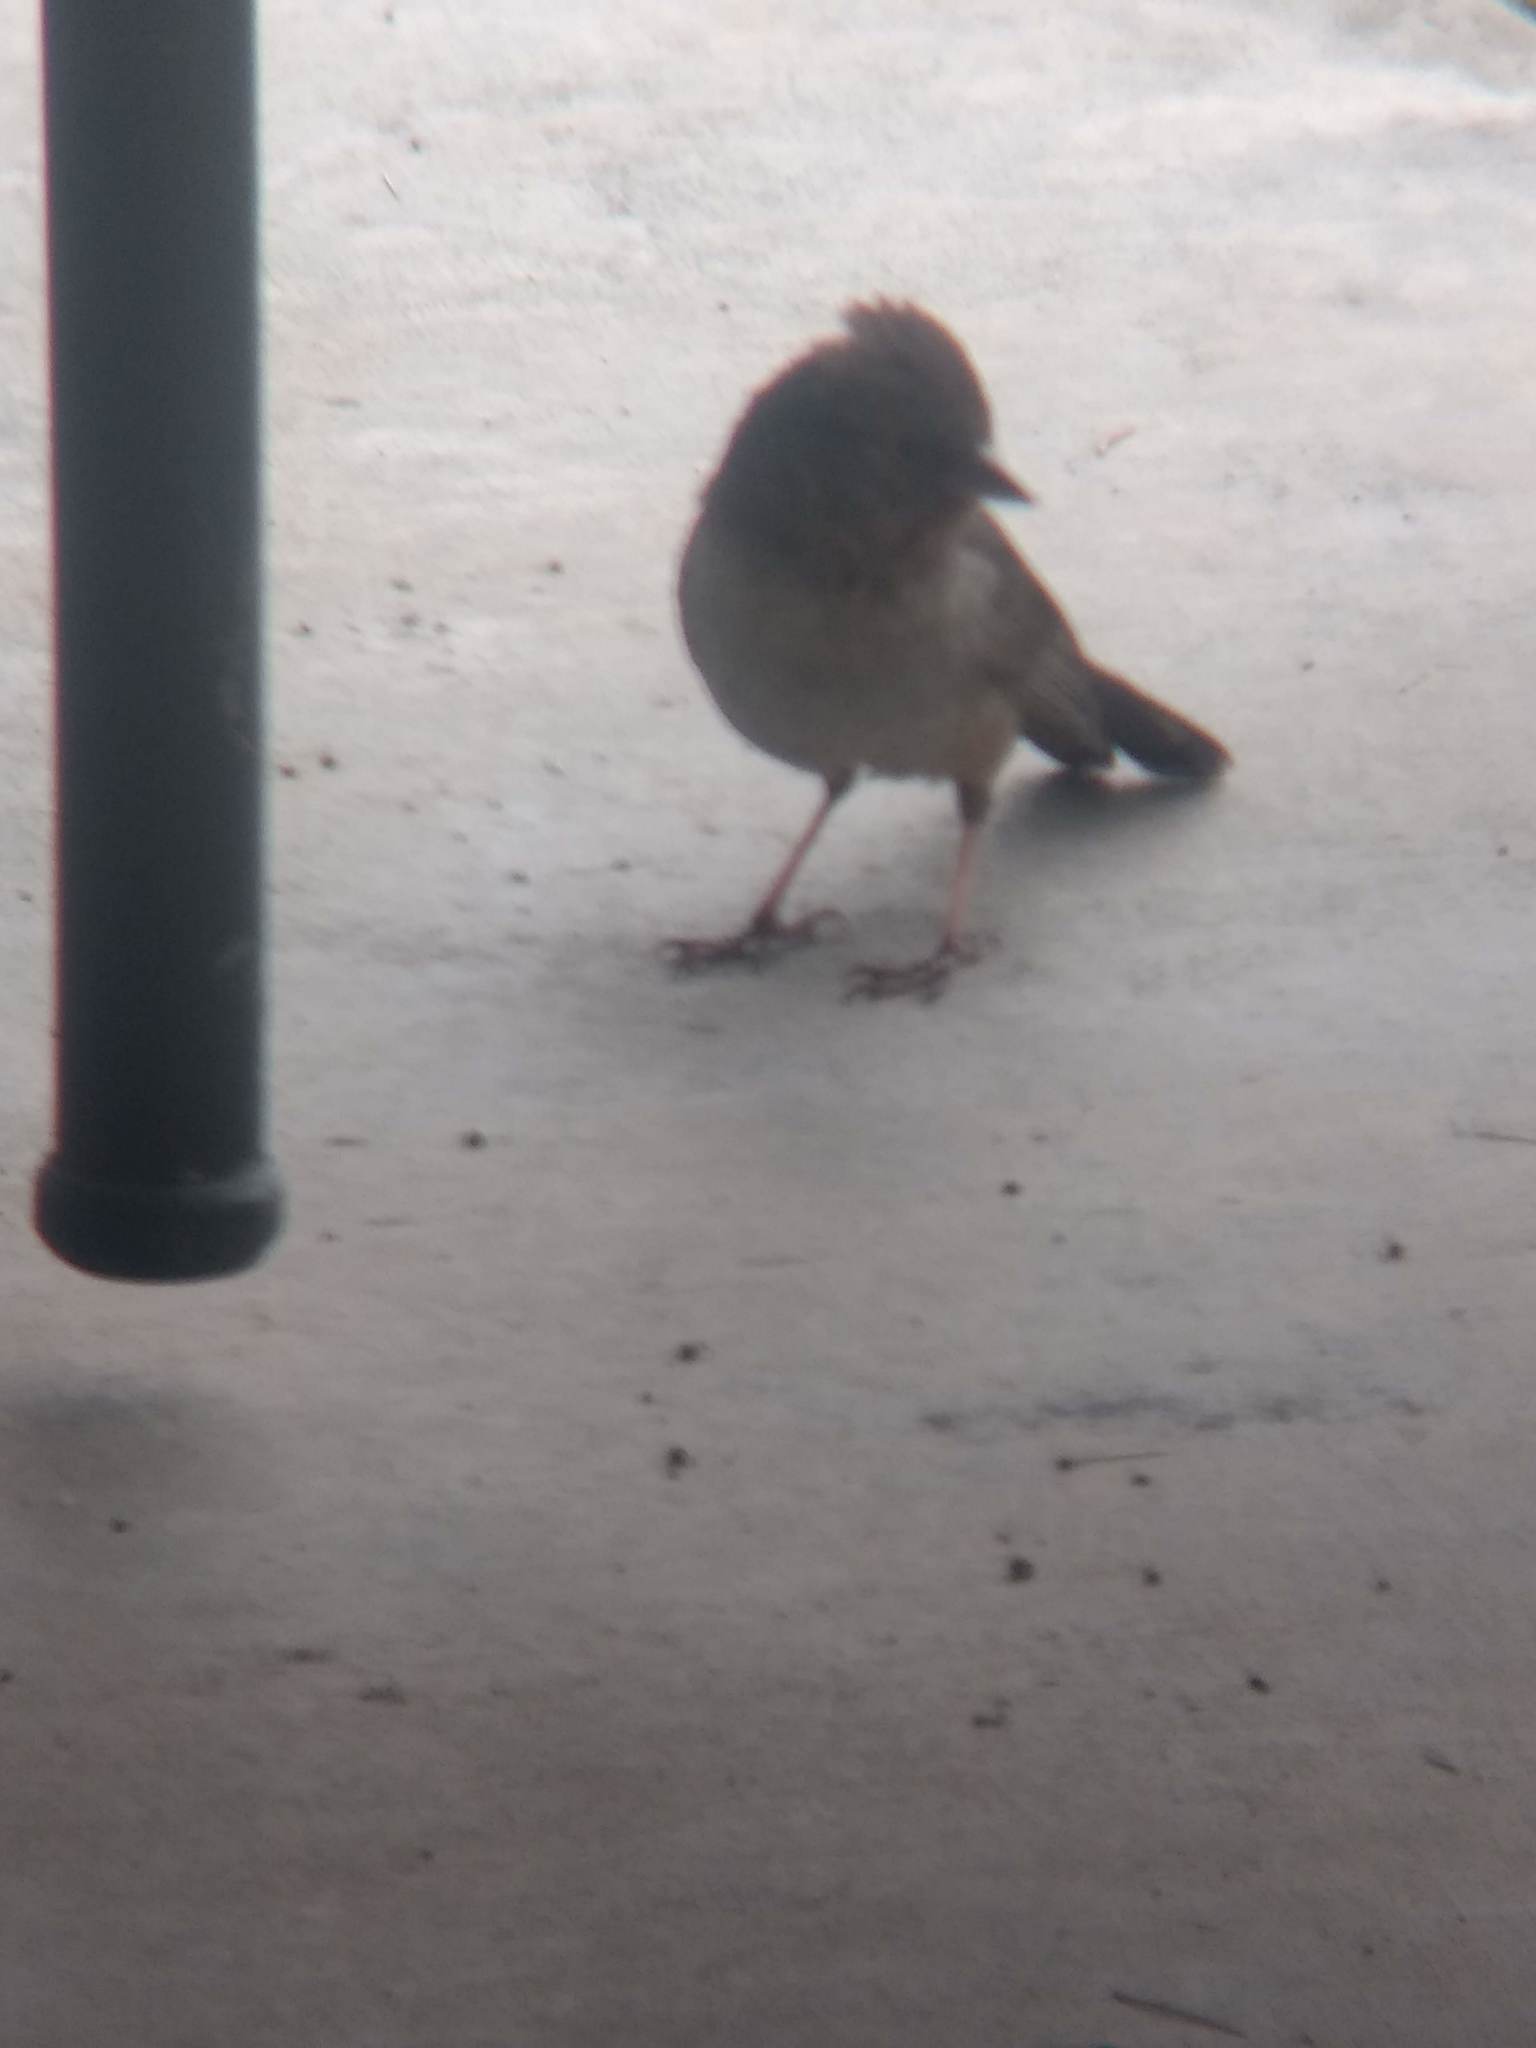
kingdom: Animalia
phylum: Chordata
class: Aves
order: Passeriformes
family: Passerellidae
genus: Melozone
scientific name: Melozone crissalis
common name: California towhee
